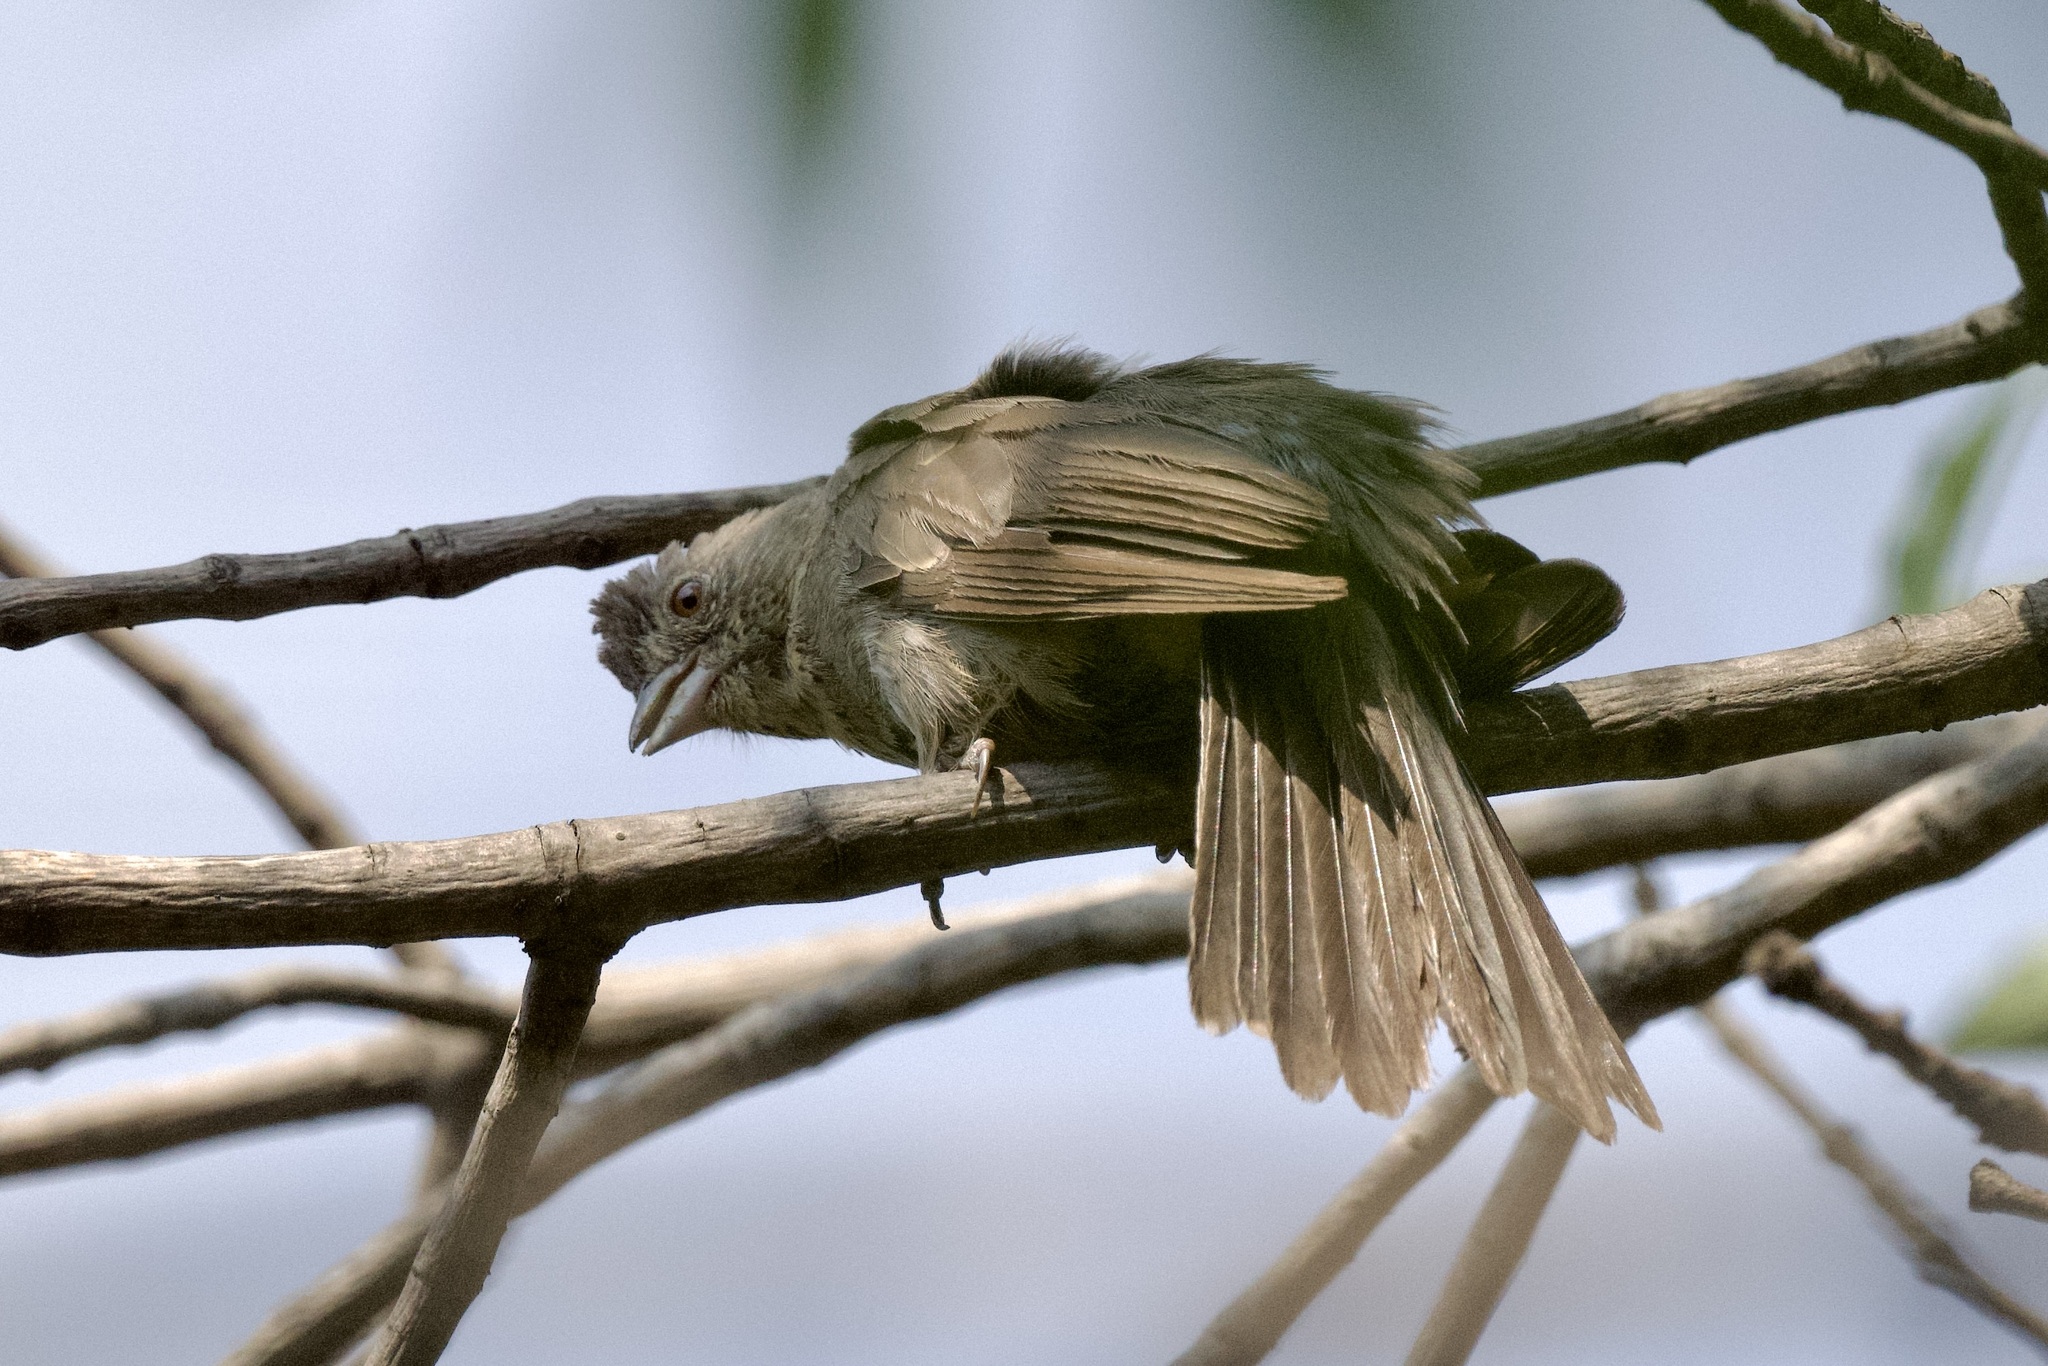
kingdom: Animalia
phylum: Chordata
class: Aves
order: Passeriformes
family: Passerellidae
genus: Melozone
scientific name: Melozone fusca
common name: Canyon towhee
